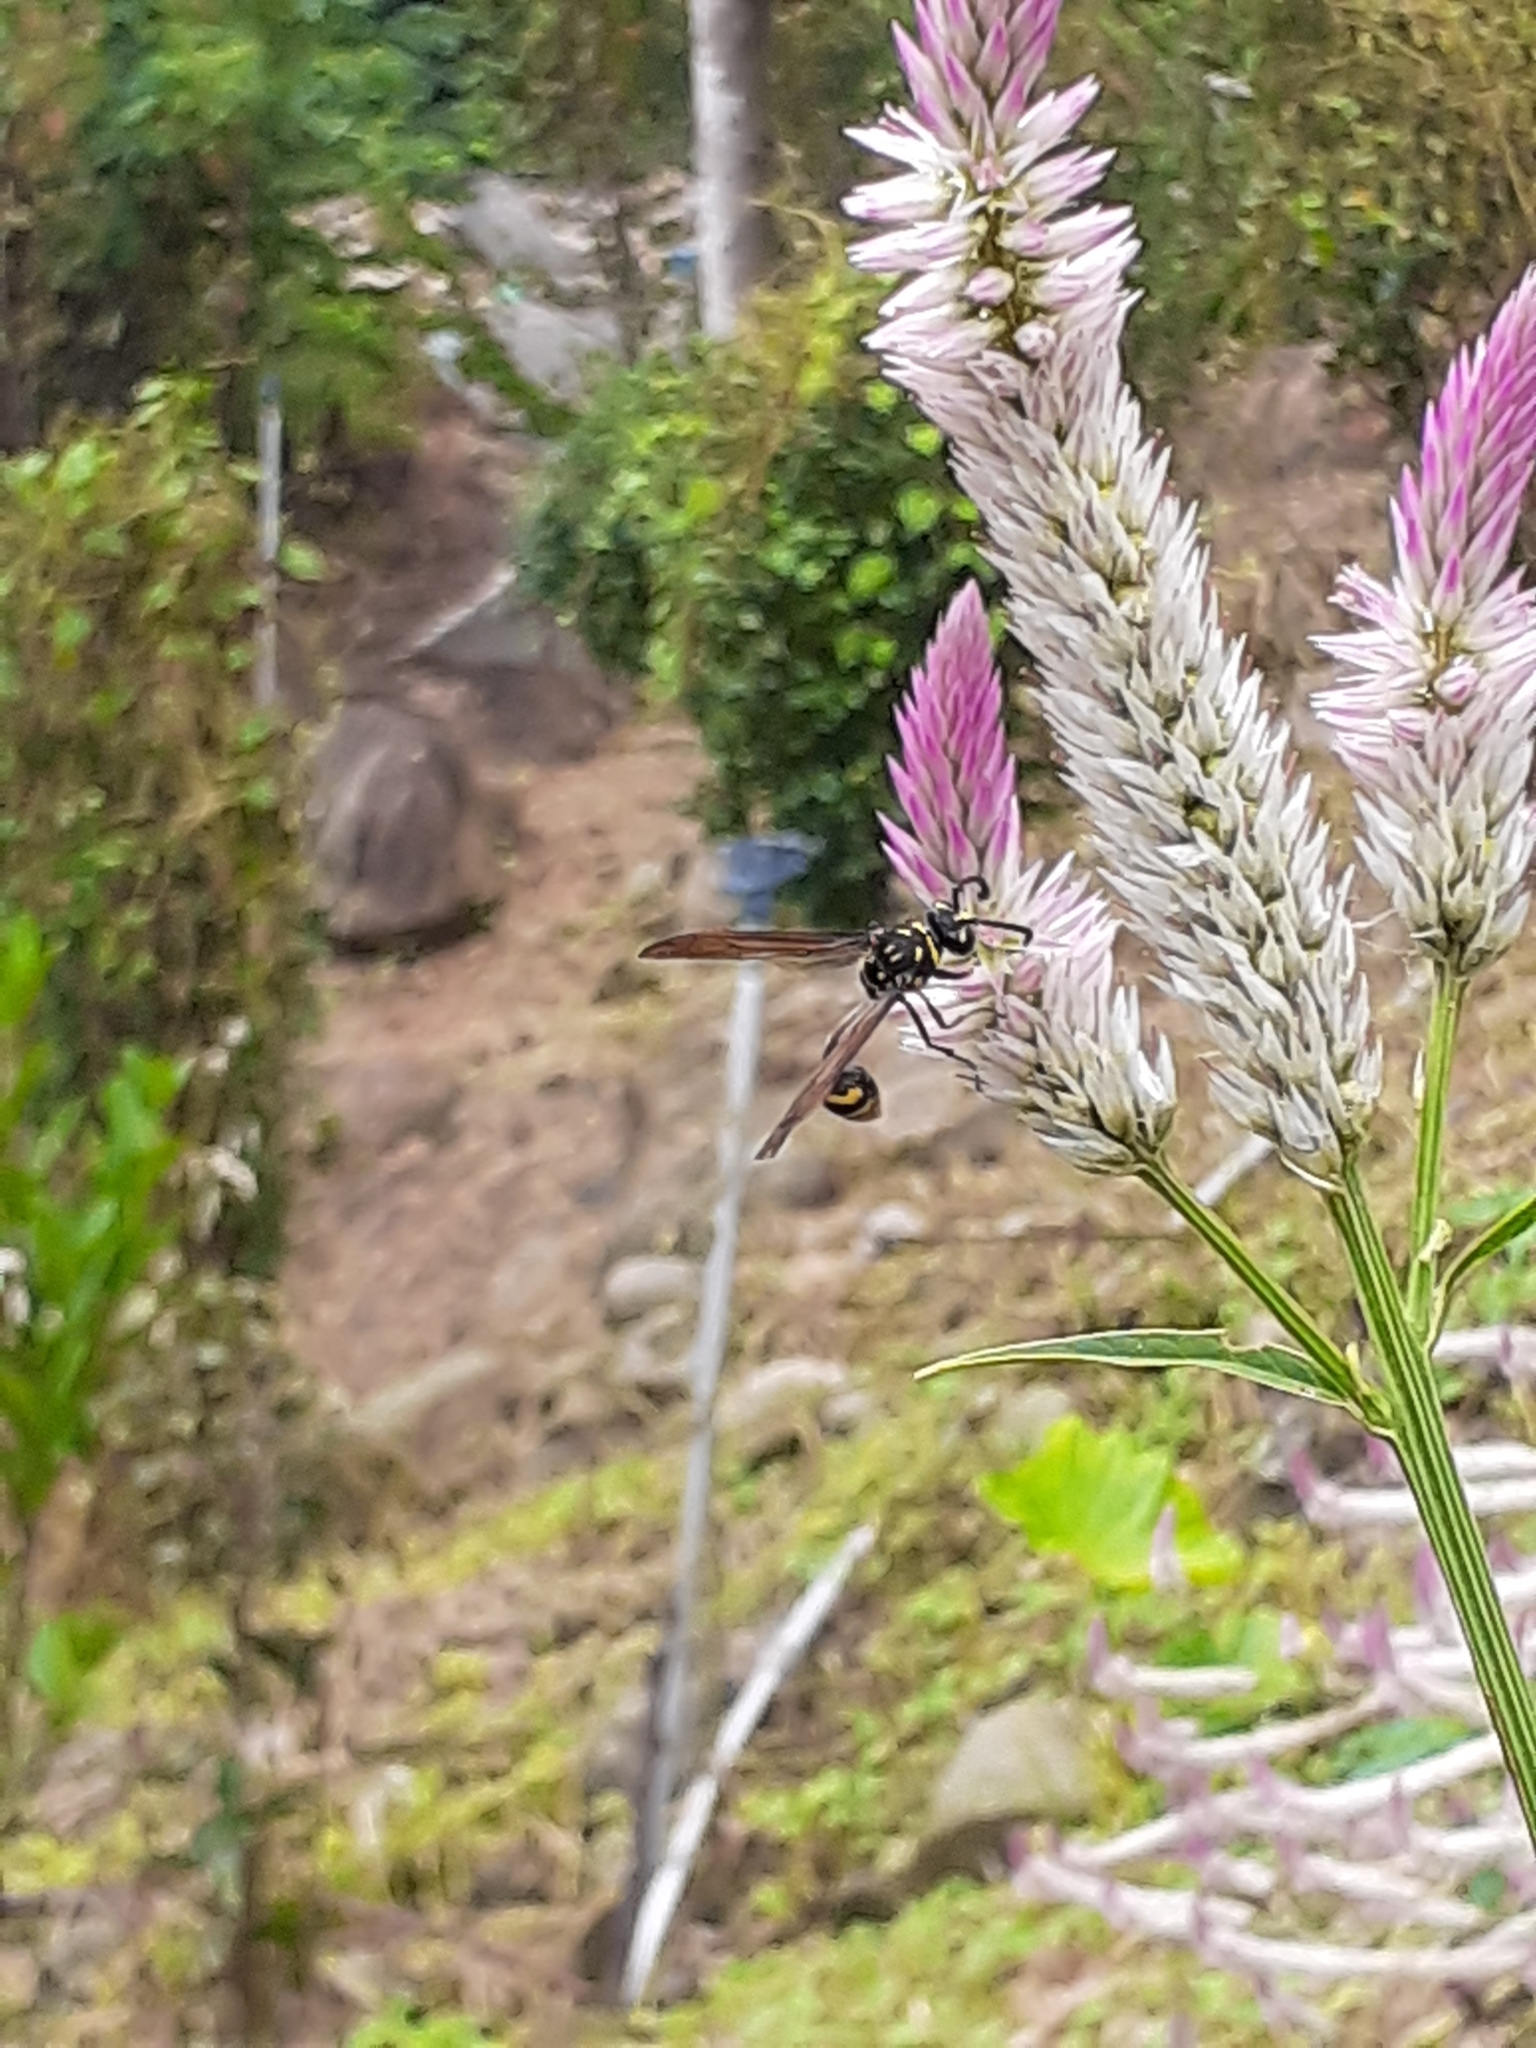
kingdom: Animalia
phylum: Arthropoda
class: Insecta
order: Hymenoptera
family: Eumenidae
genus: Phimenes
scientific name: Phimenes flavopictus
